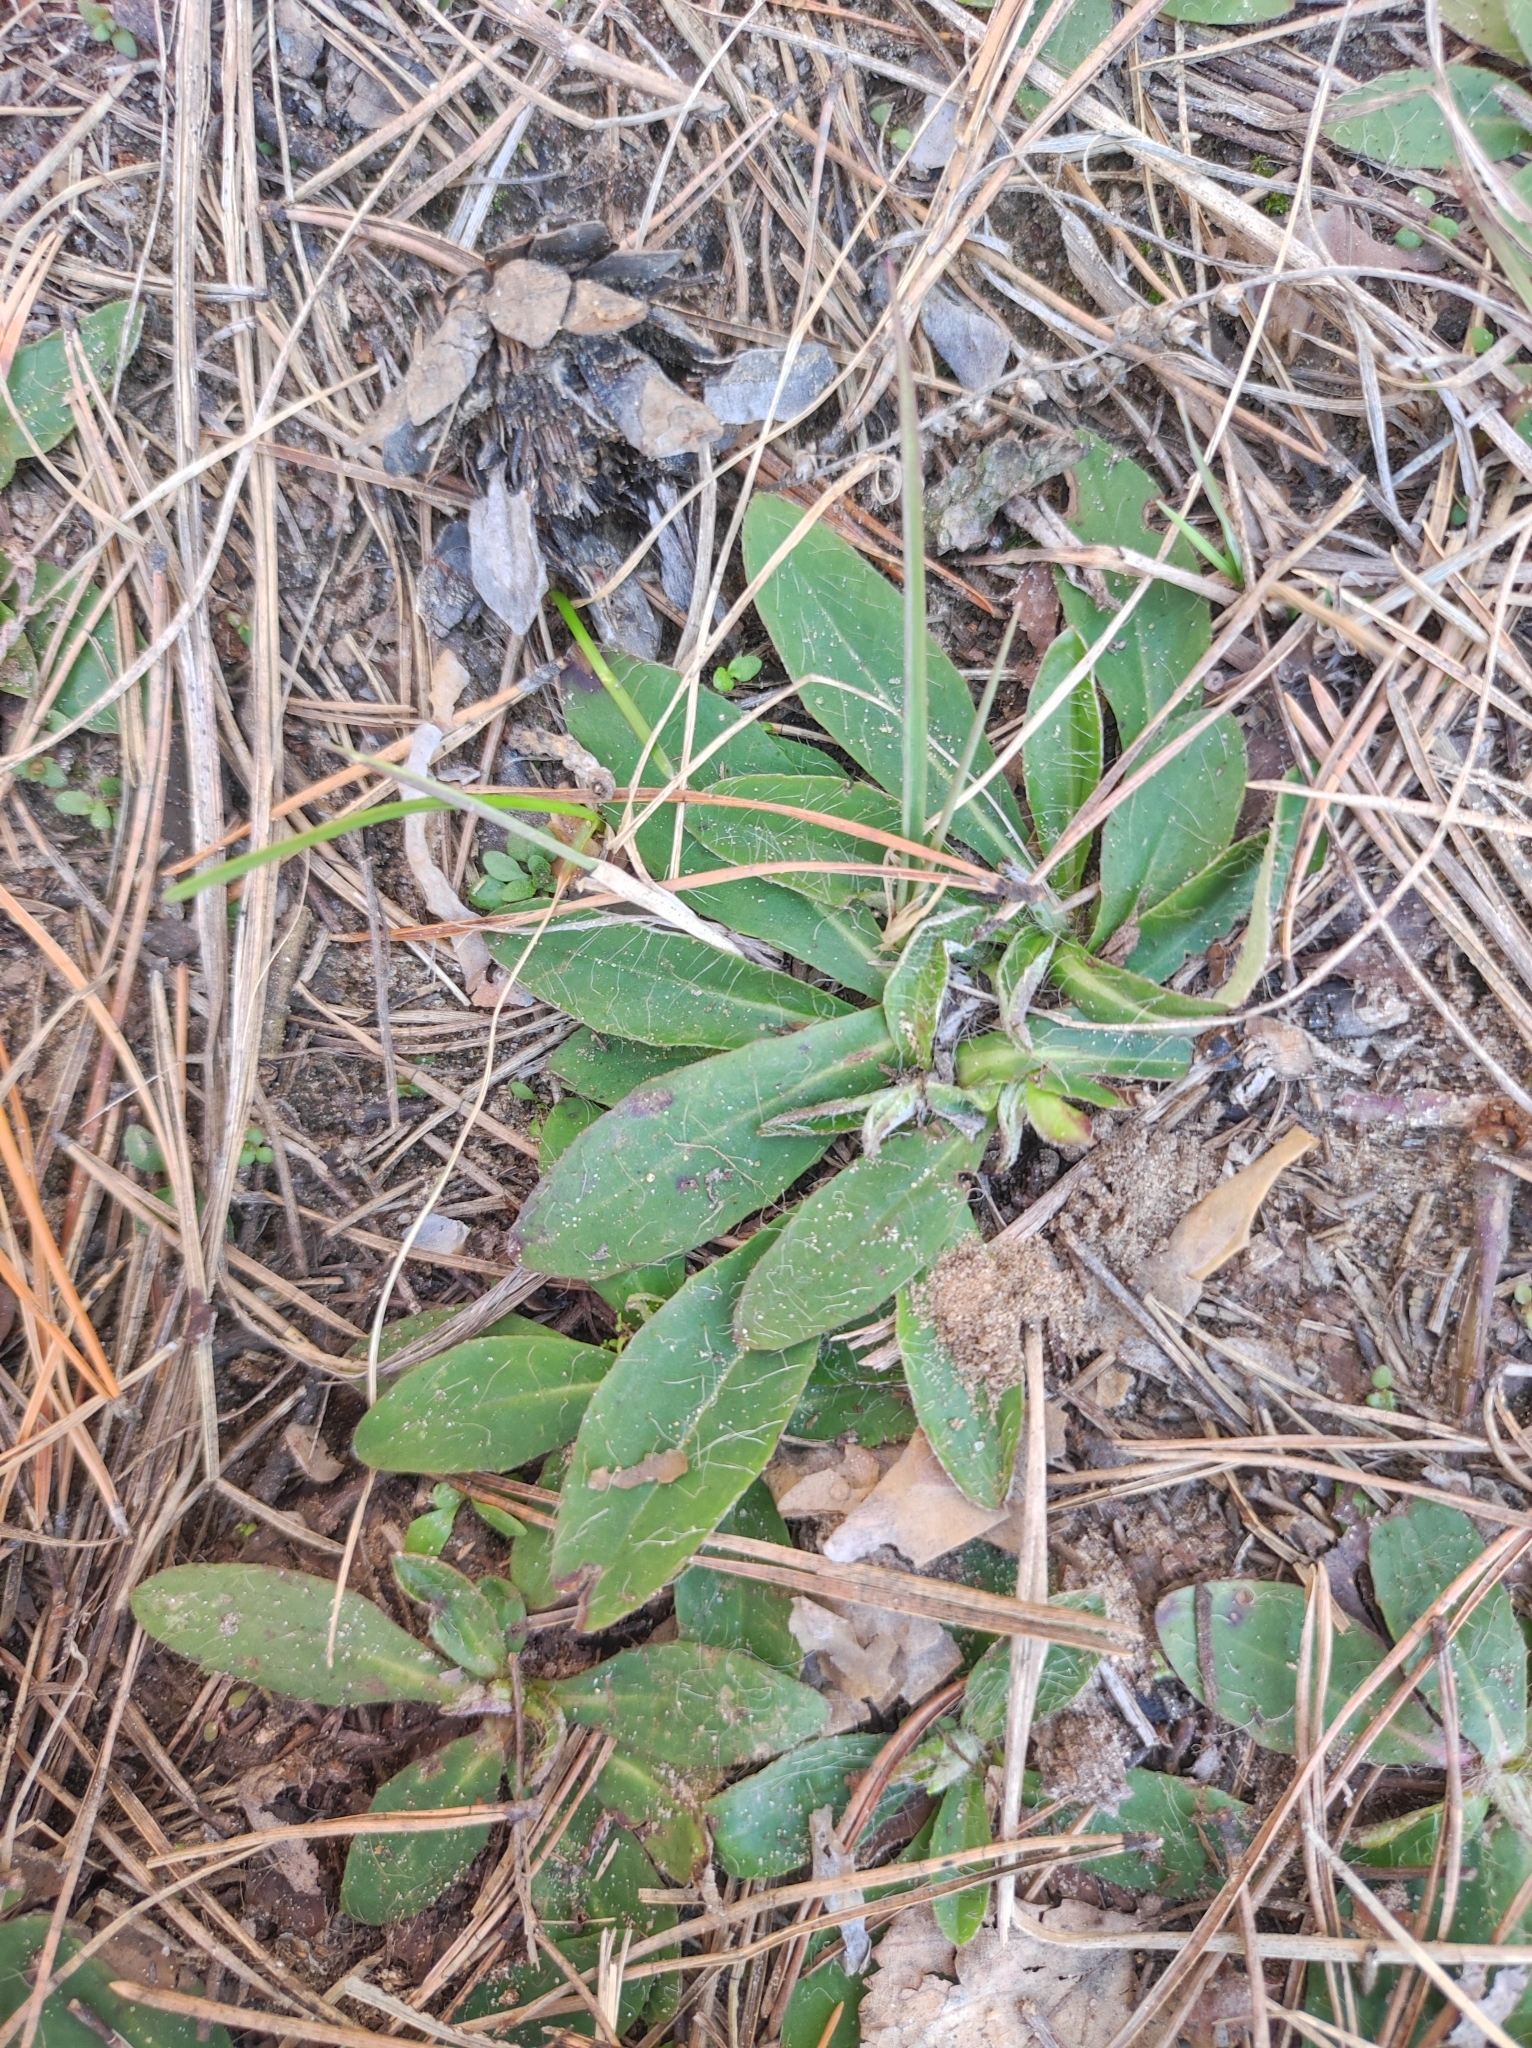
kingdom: Plantae
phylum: Tracheophyta
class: Magnoliopsida
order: Asterales
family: Asteraceae
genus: Pilosella
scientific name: Pilosella officinarum
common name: Mouse-ear hawkweed
